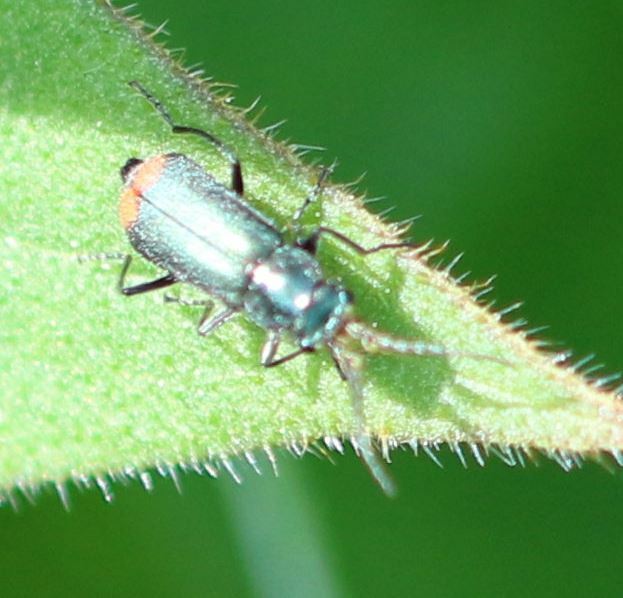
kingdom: Animalia
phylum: Arthropoda
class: Insecta
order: Coleoptera
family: Melyridae
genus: Malachius
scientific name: Malachius bipustulatus
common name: Malachite beetle
